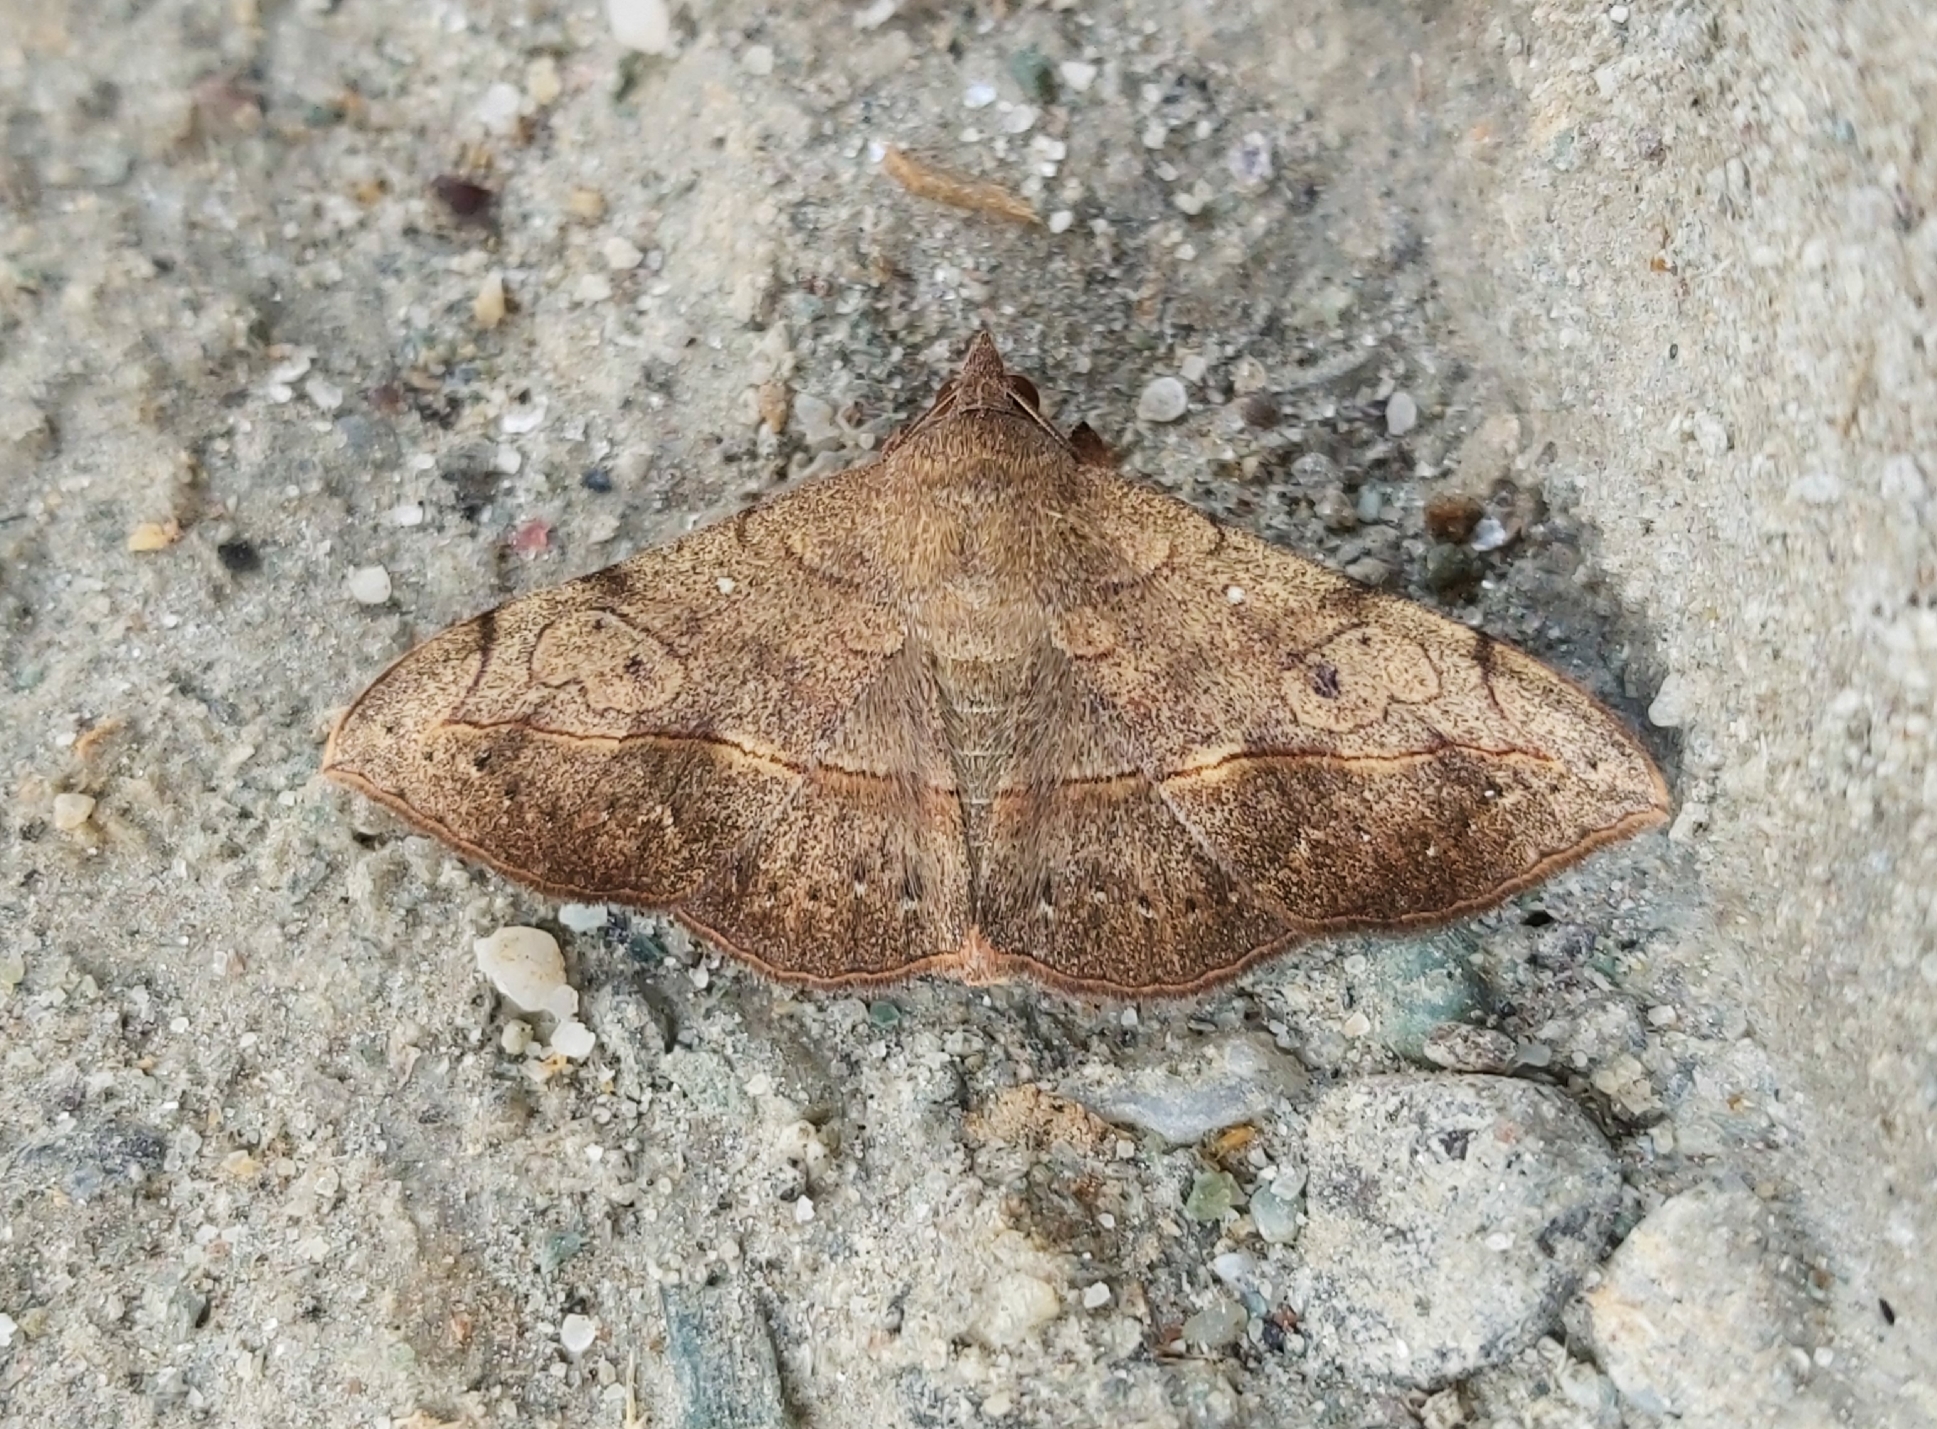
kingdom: Animalia
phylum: Arthropoda
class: Insecta
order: Lepidoptera
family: Erebidae
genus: Anticarsia
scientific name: Anticarsia irrorata
